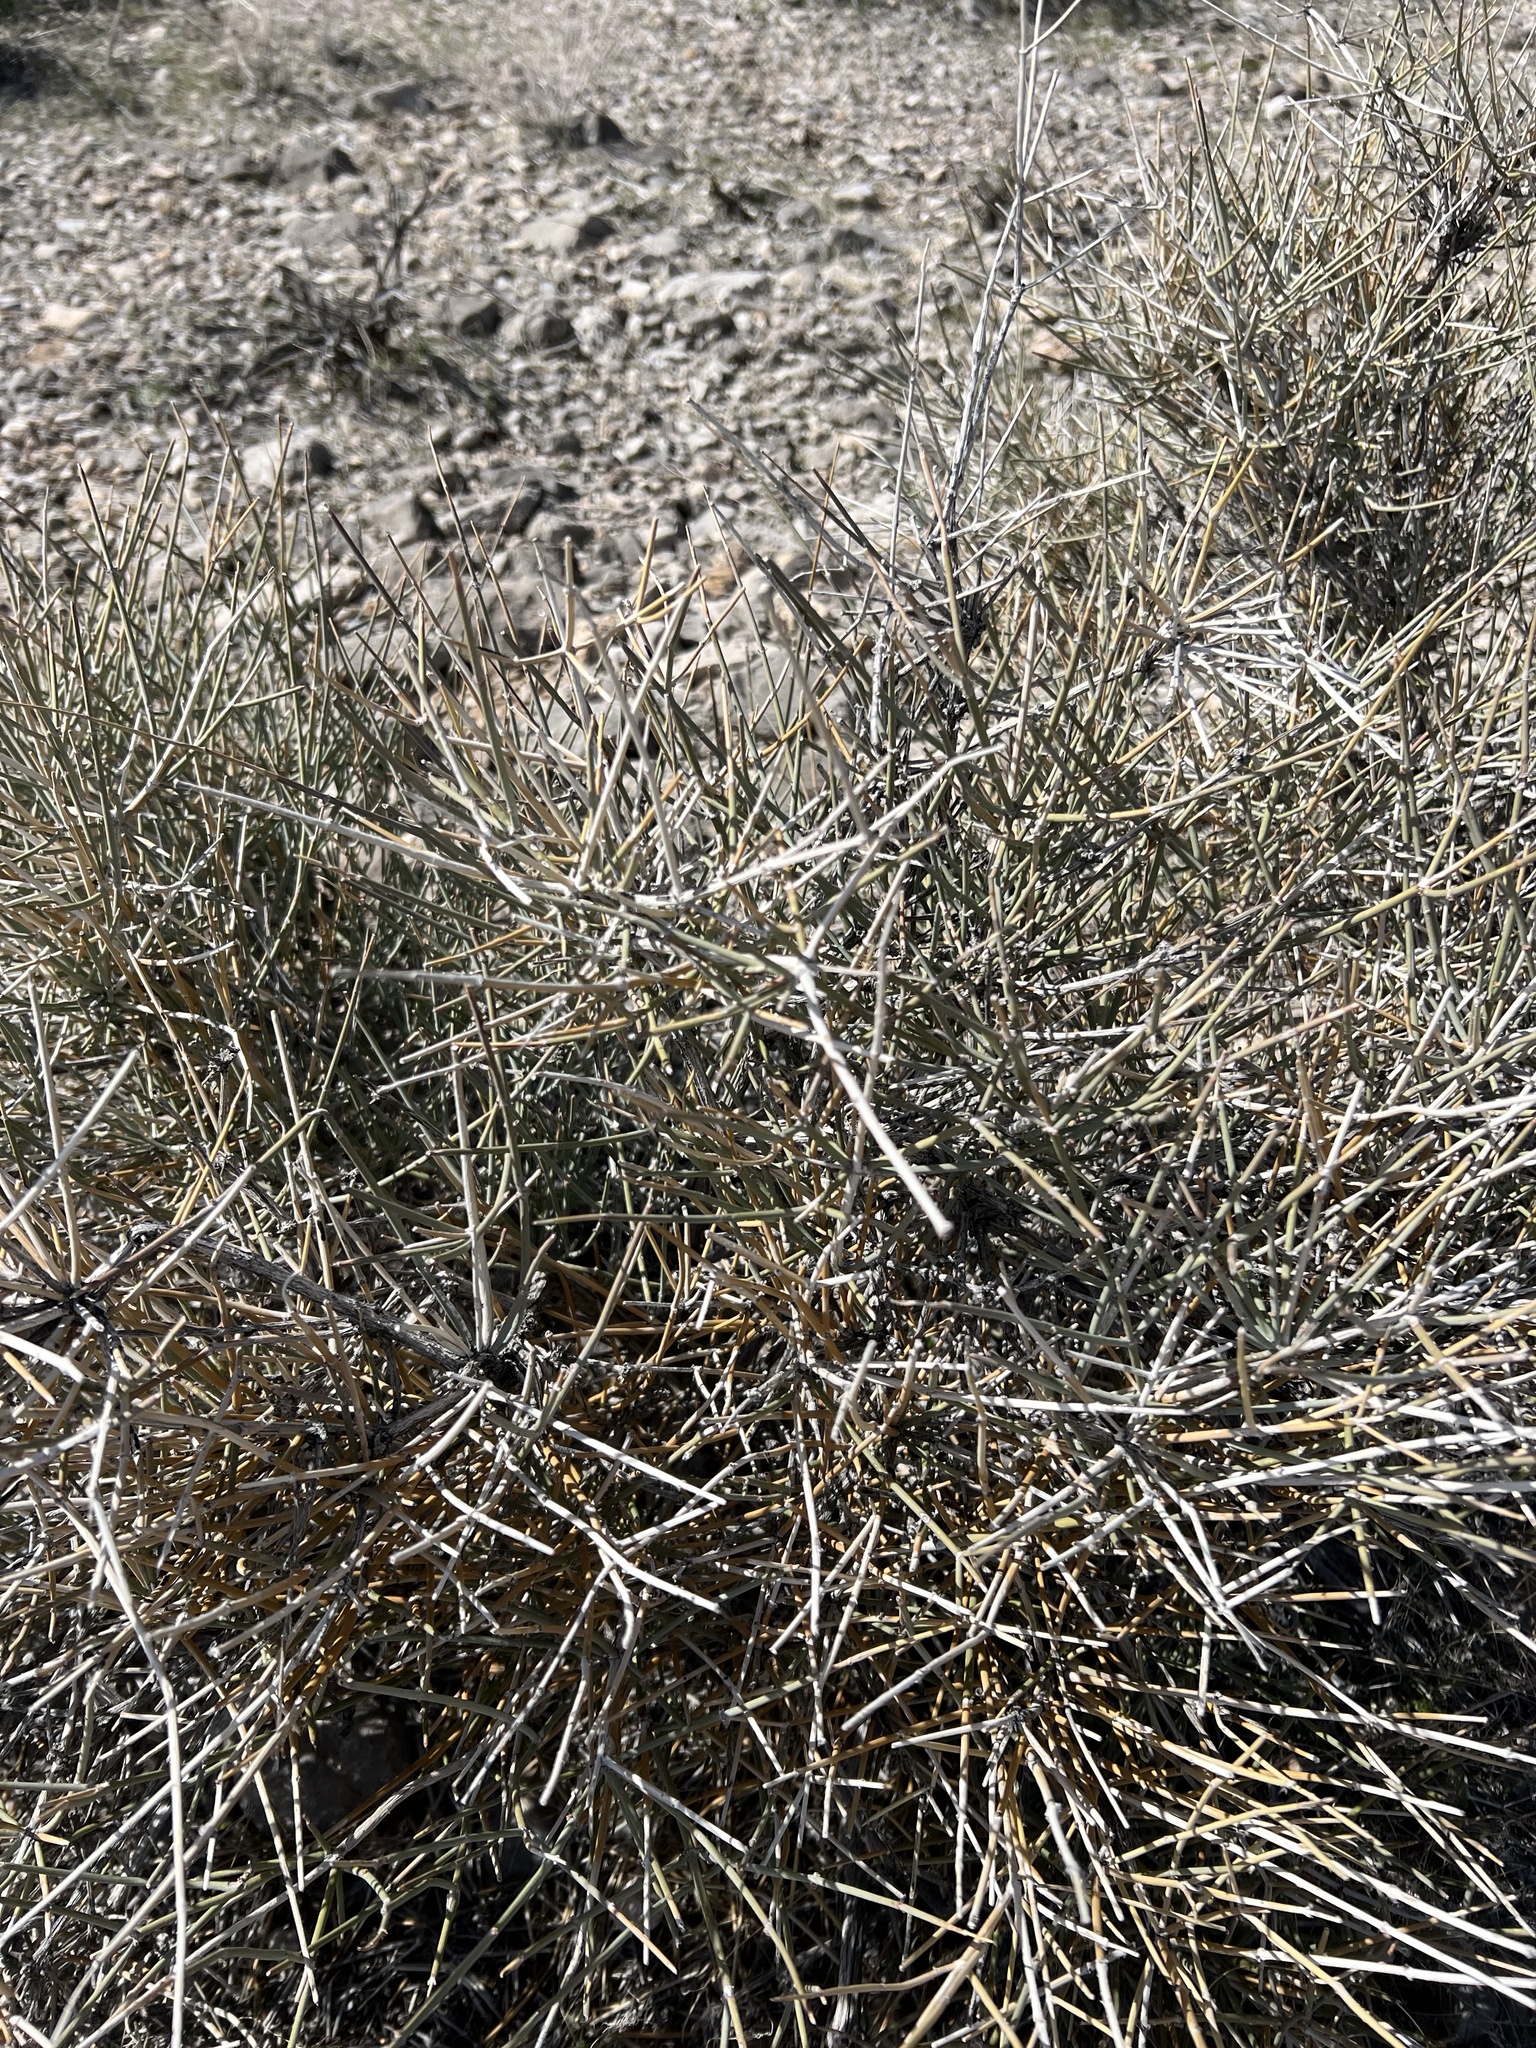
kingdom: Plantae
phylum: Tracheophyta
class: Gnetopsida
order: Ephedrales
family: Ephedraceae
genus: Ephedra
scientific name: Ephedra nevadensis
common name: Gray ephedra
